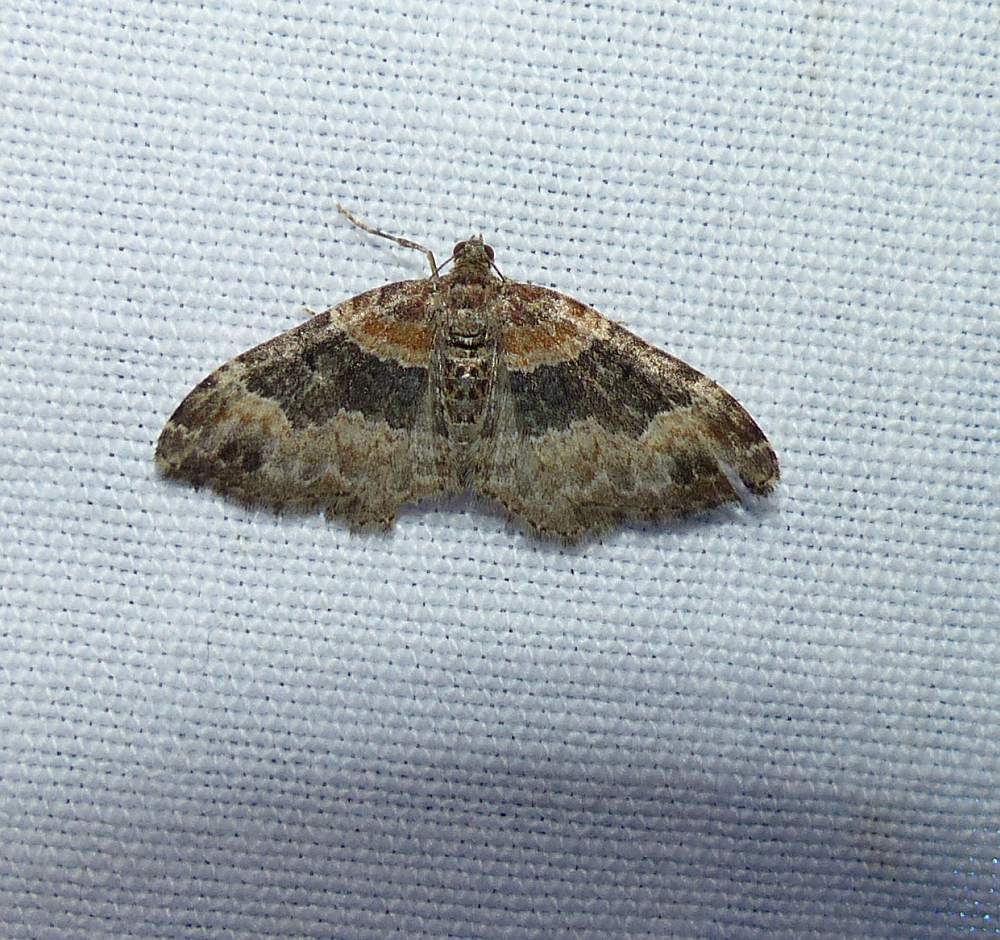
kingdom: Animalia
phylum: Arthropoda
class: Insecta
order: Lepidoptera
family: Geometridae
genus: Xanthorhoe
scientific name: Xanthorhoe ferrugata
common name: Dark-barred twin-spot carpet
